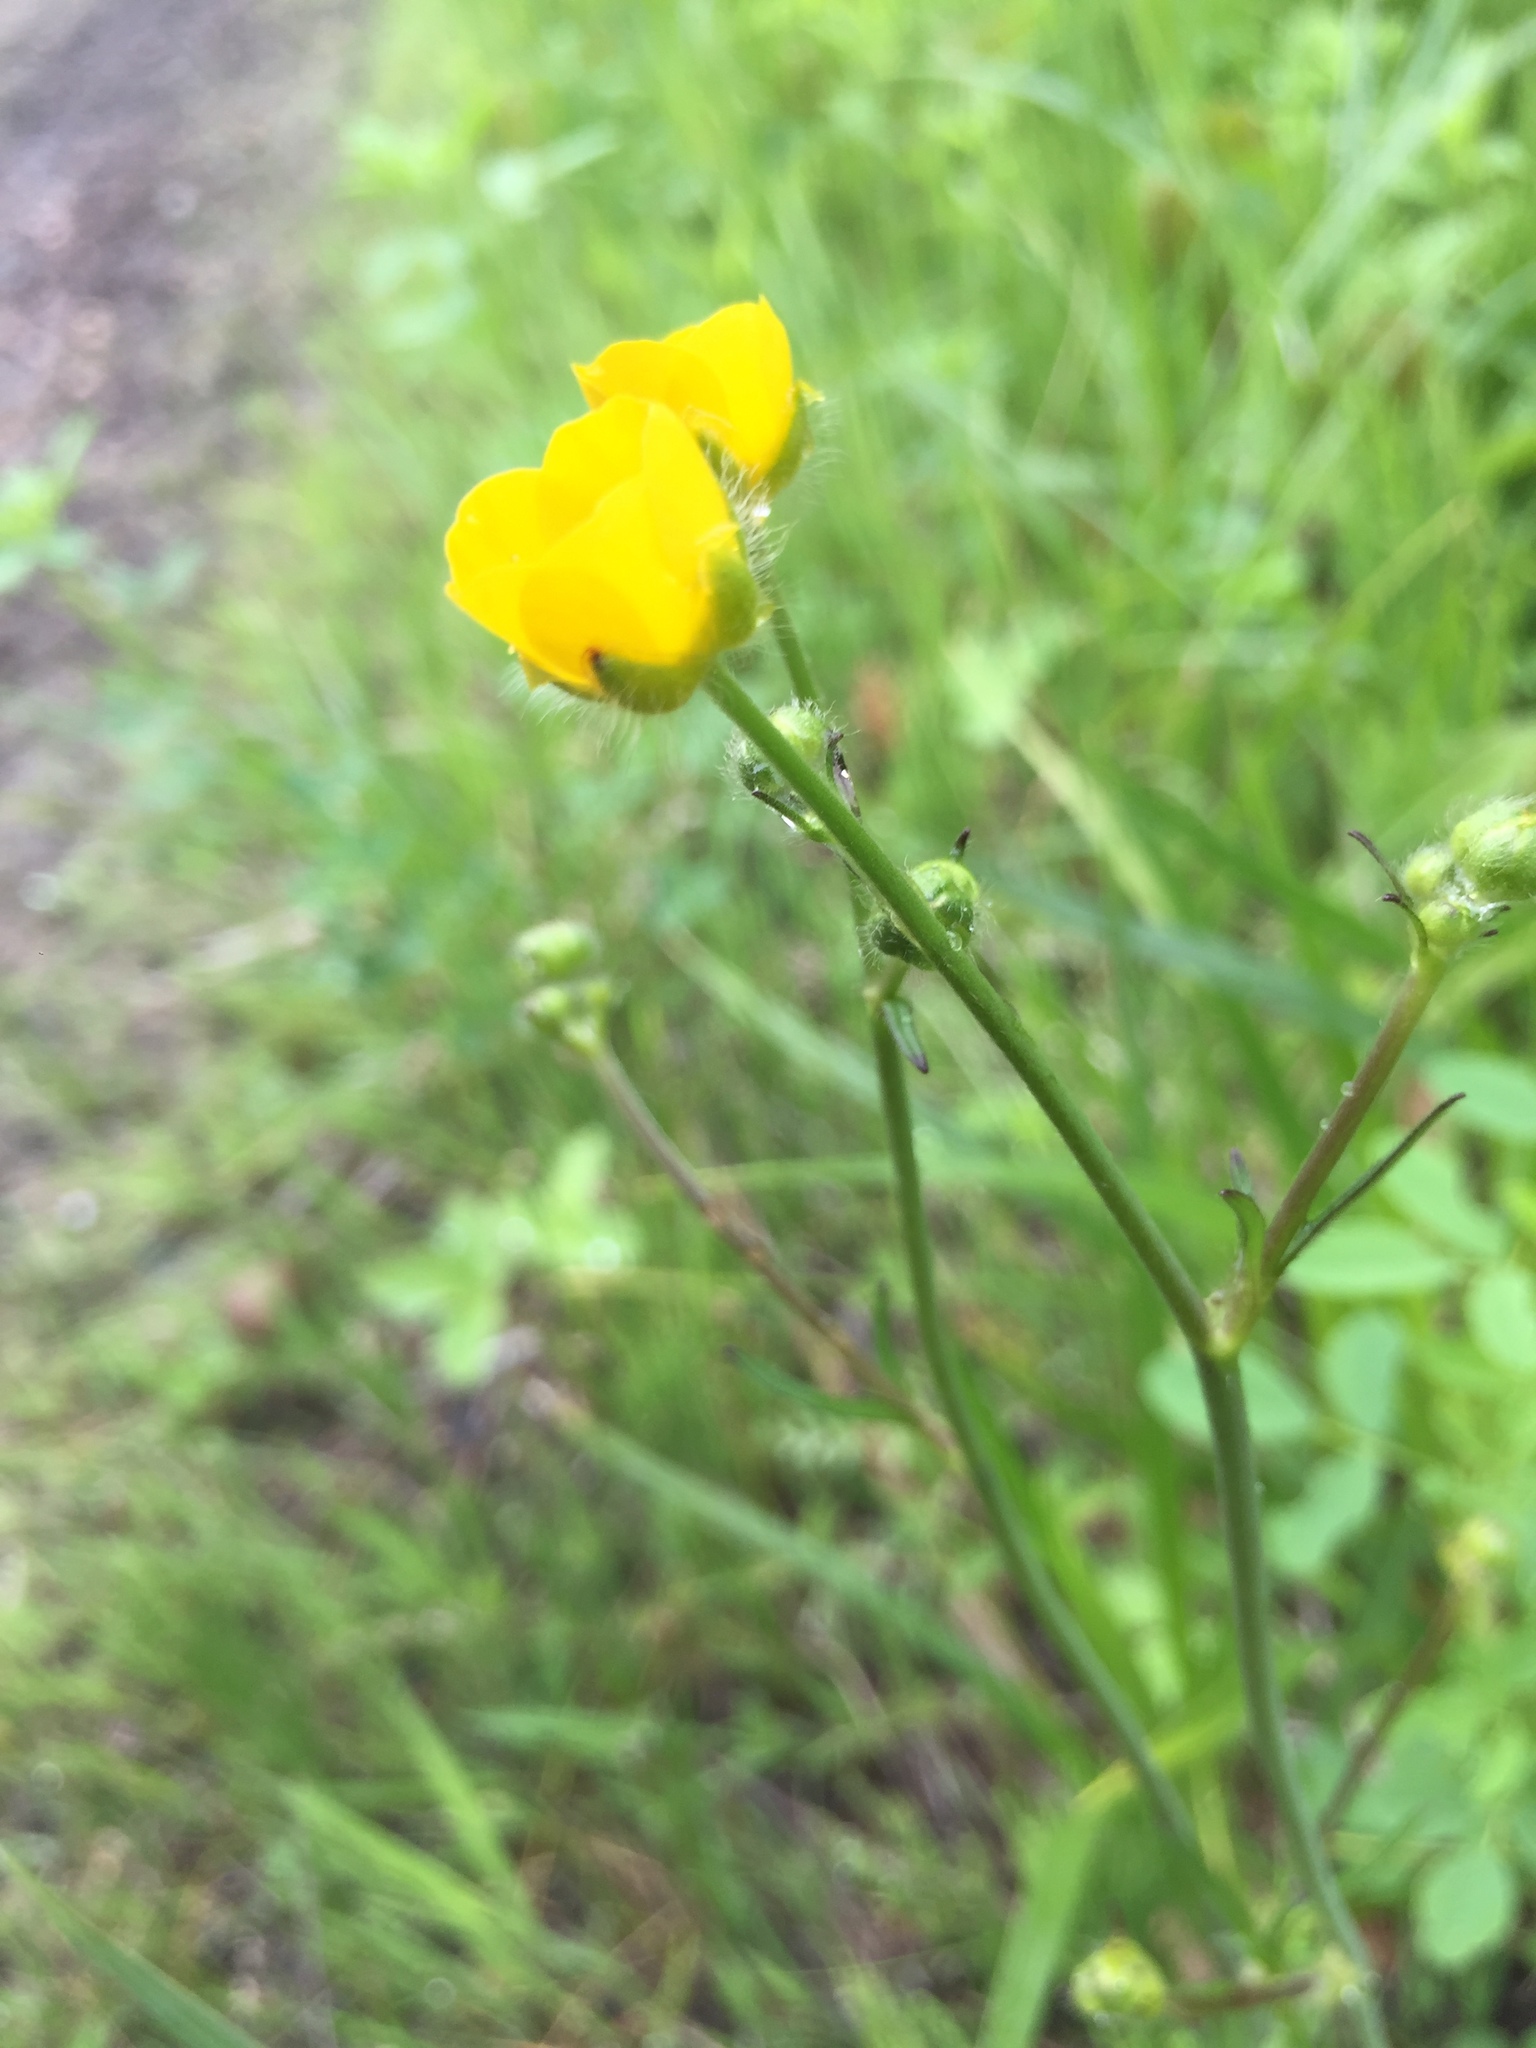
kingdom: Plantae
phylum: Tracheophyta
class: Magnoliopsida
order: Ranunculales
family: Ranunculaceae
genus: Ranunculus
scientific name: Ranunculus acris
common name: Meadow buttercup
